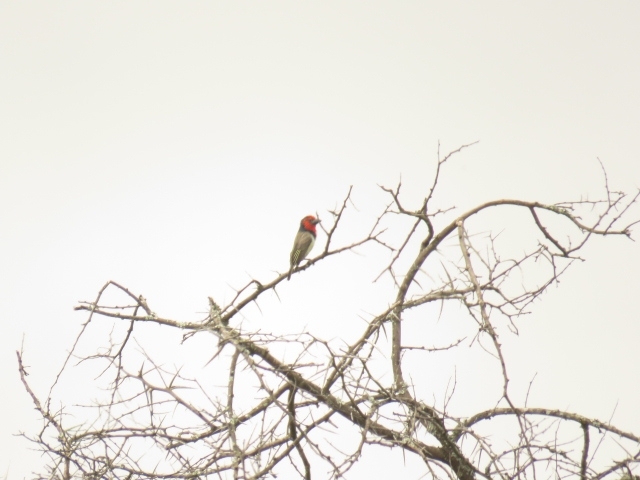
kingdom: Animalia
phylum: Chordata
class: Aves
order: Piciformes
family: Lybiidae
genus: Lybius
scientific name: Lybius torquatus
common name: Black-collared barbet
